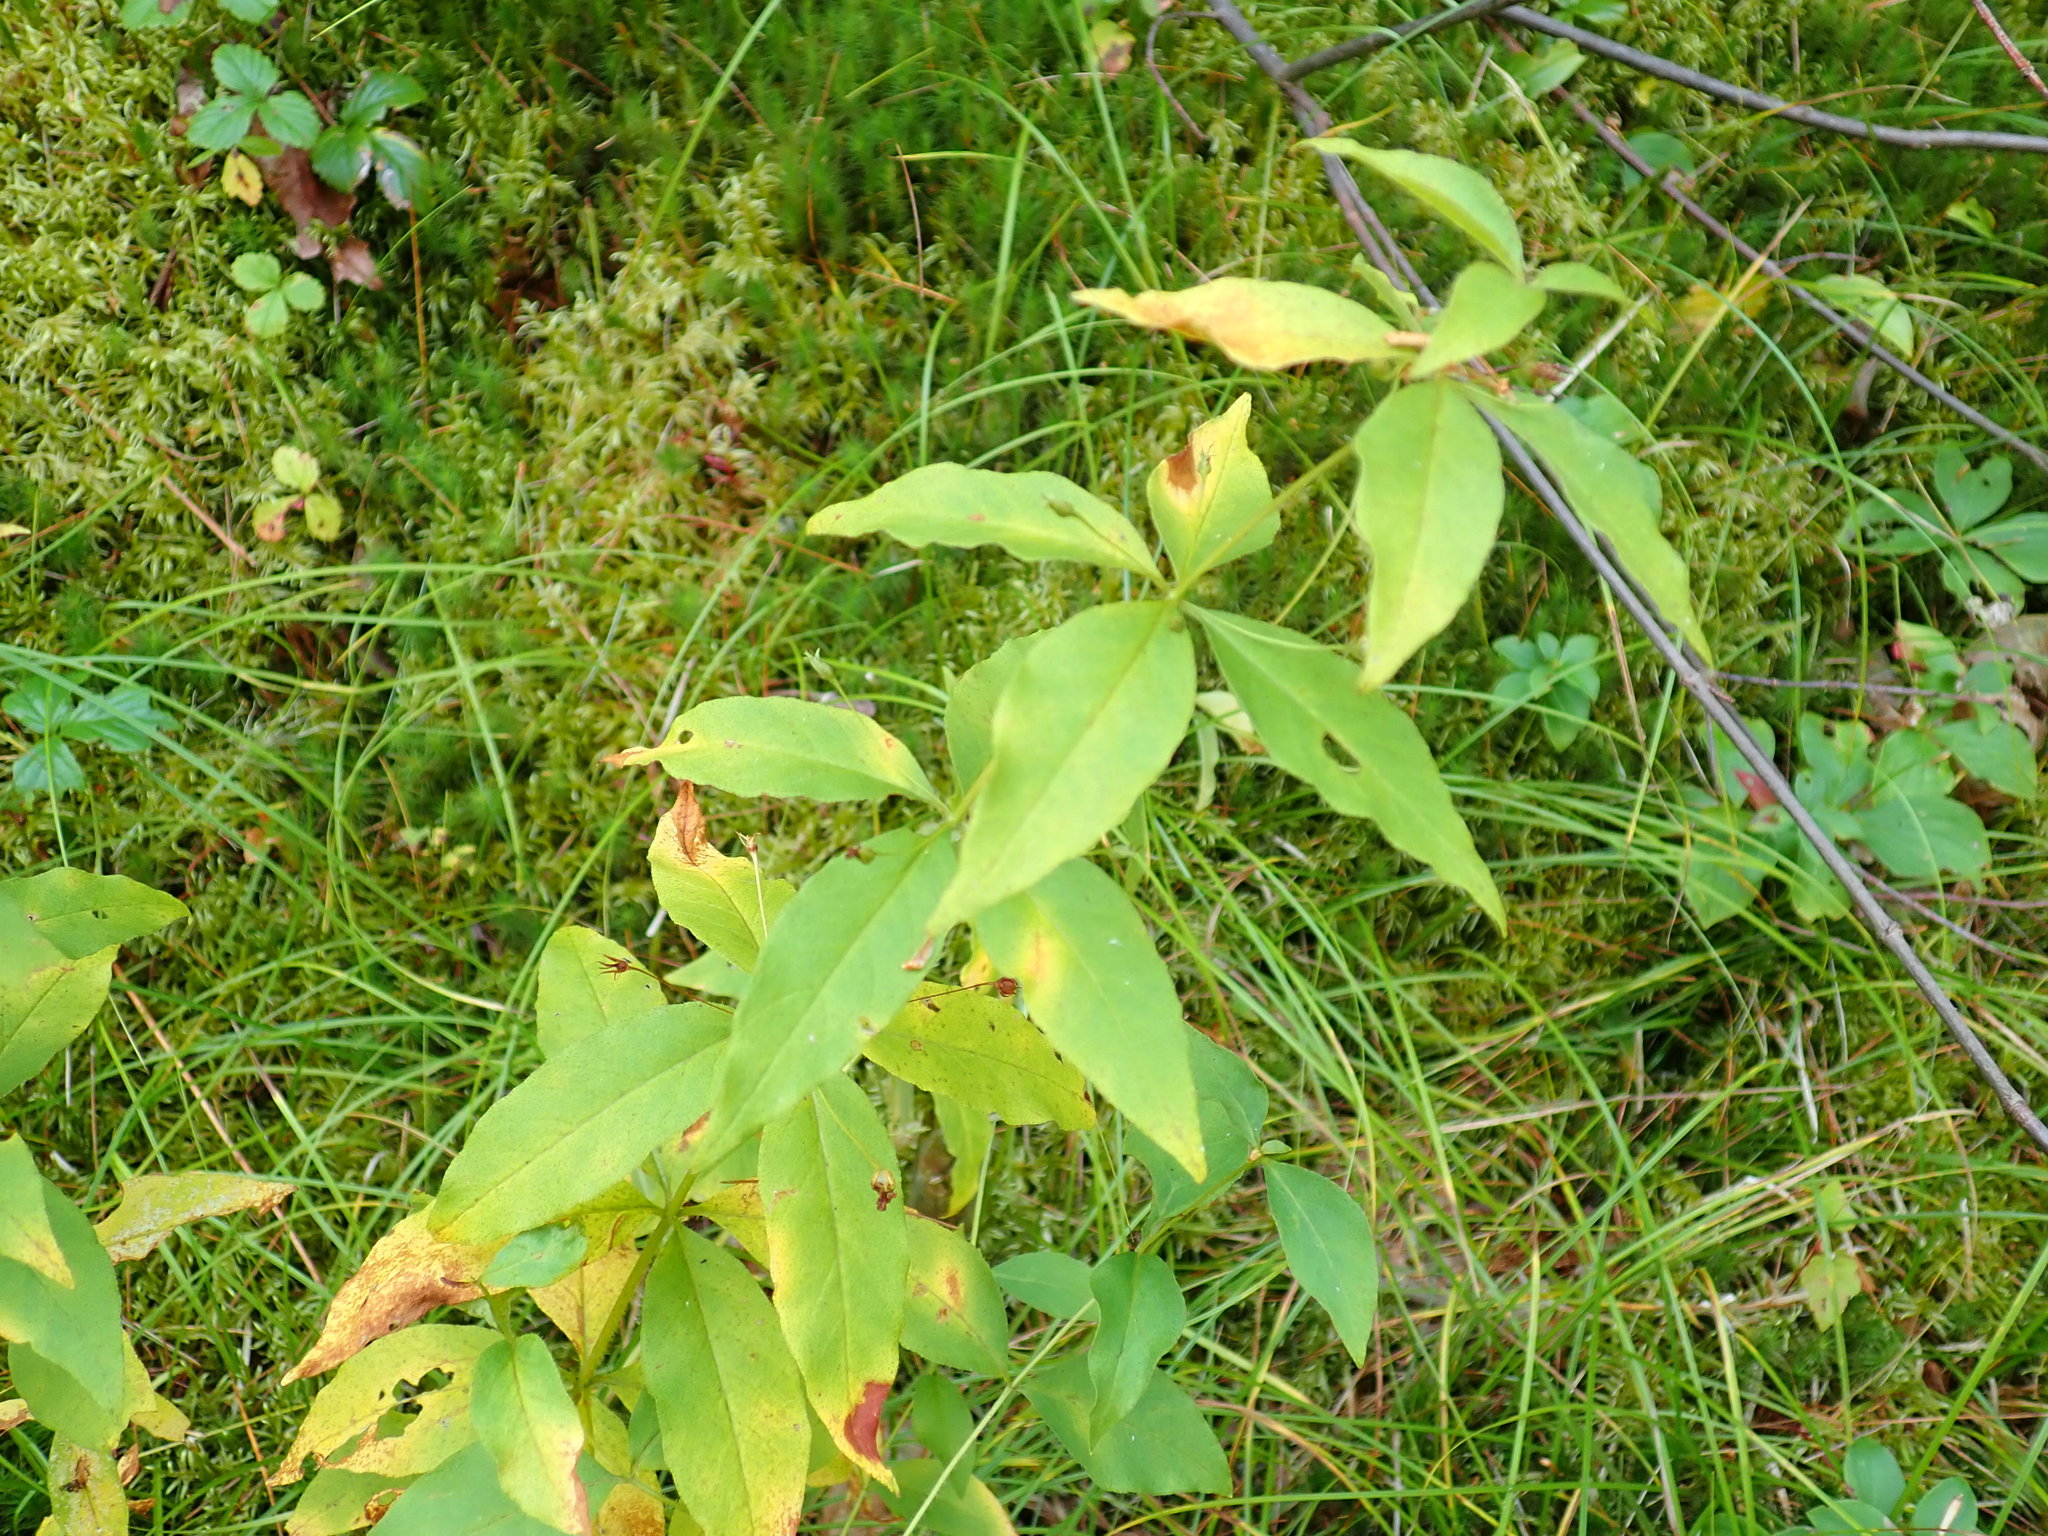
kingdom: Plantae
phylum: Tracheophyta
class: Magnoliopsida
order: Ericales
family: Primulaceae
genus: Lysimachia
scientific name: Lysimachia quadrifolia
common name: Whorled loosestrife
